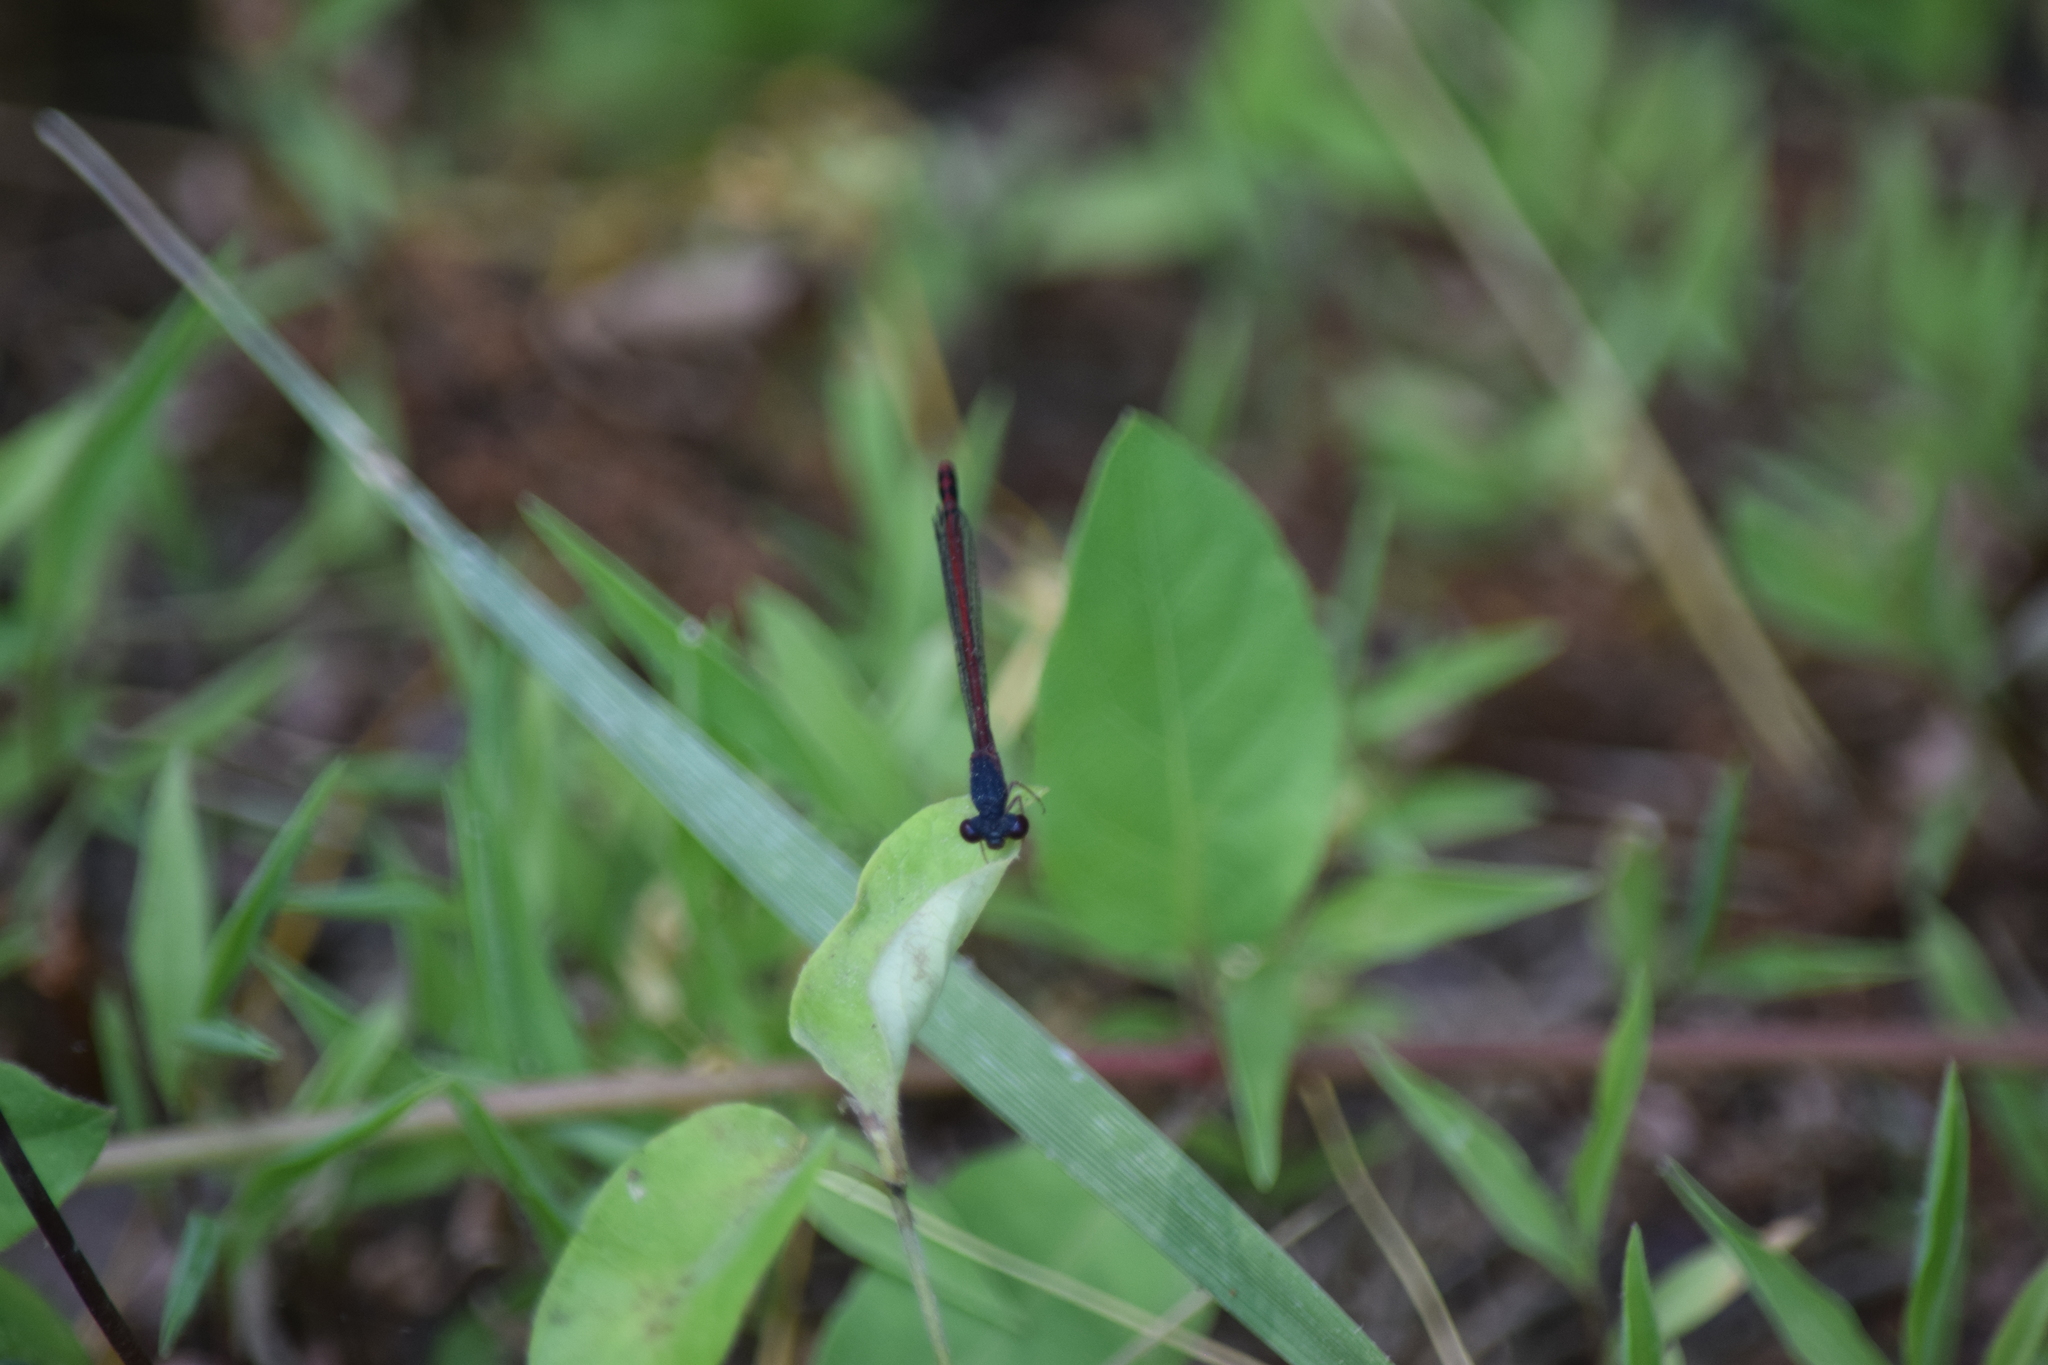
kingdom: Animalia
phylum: Arthropoda
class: Insecta
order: Odonata
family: Coenagrionidae
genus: Amphiagrion
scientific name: Amphiagrion saucium
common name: Eastern red damsel
